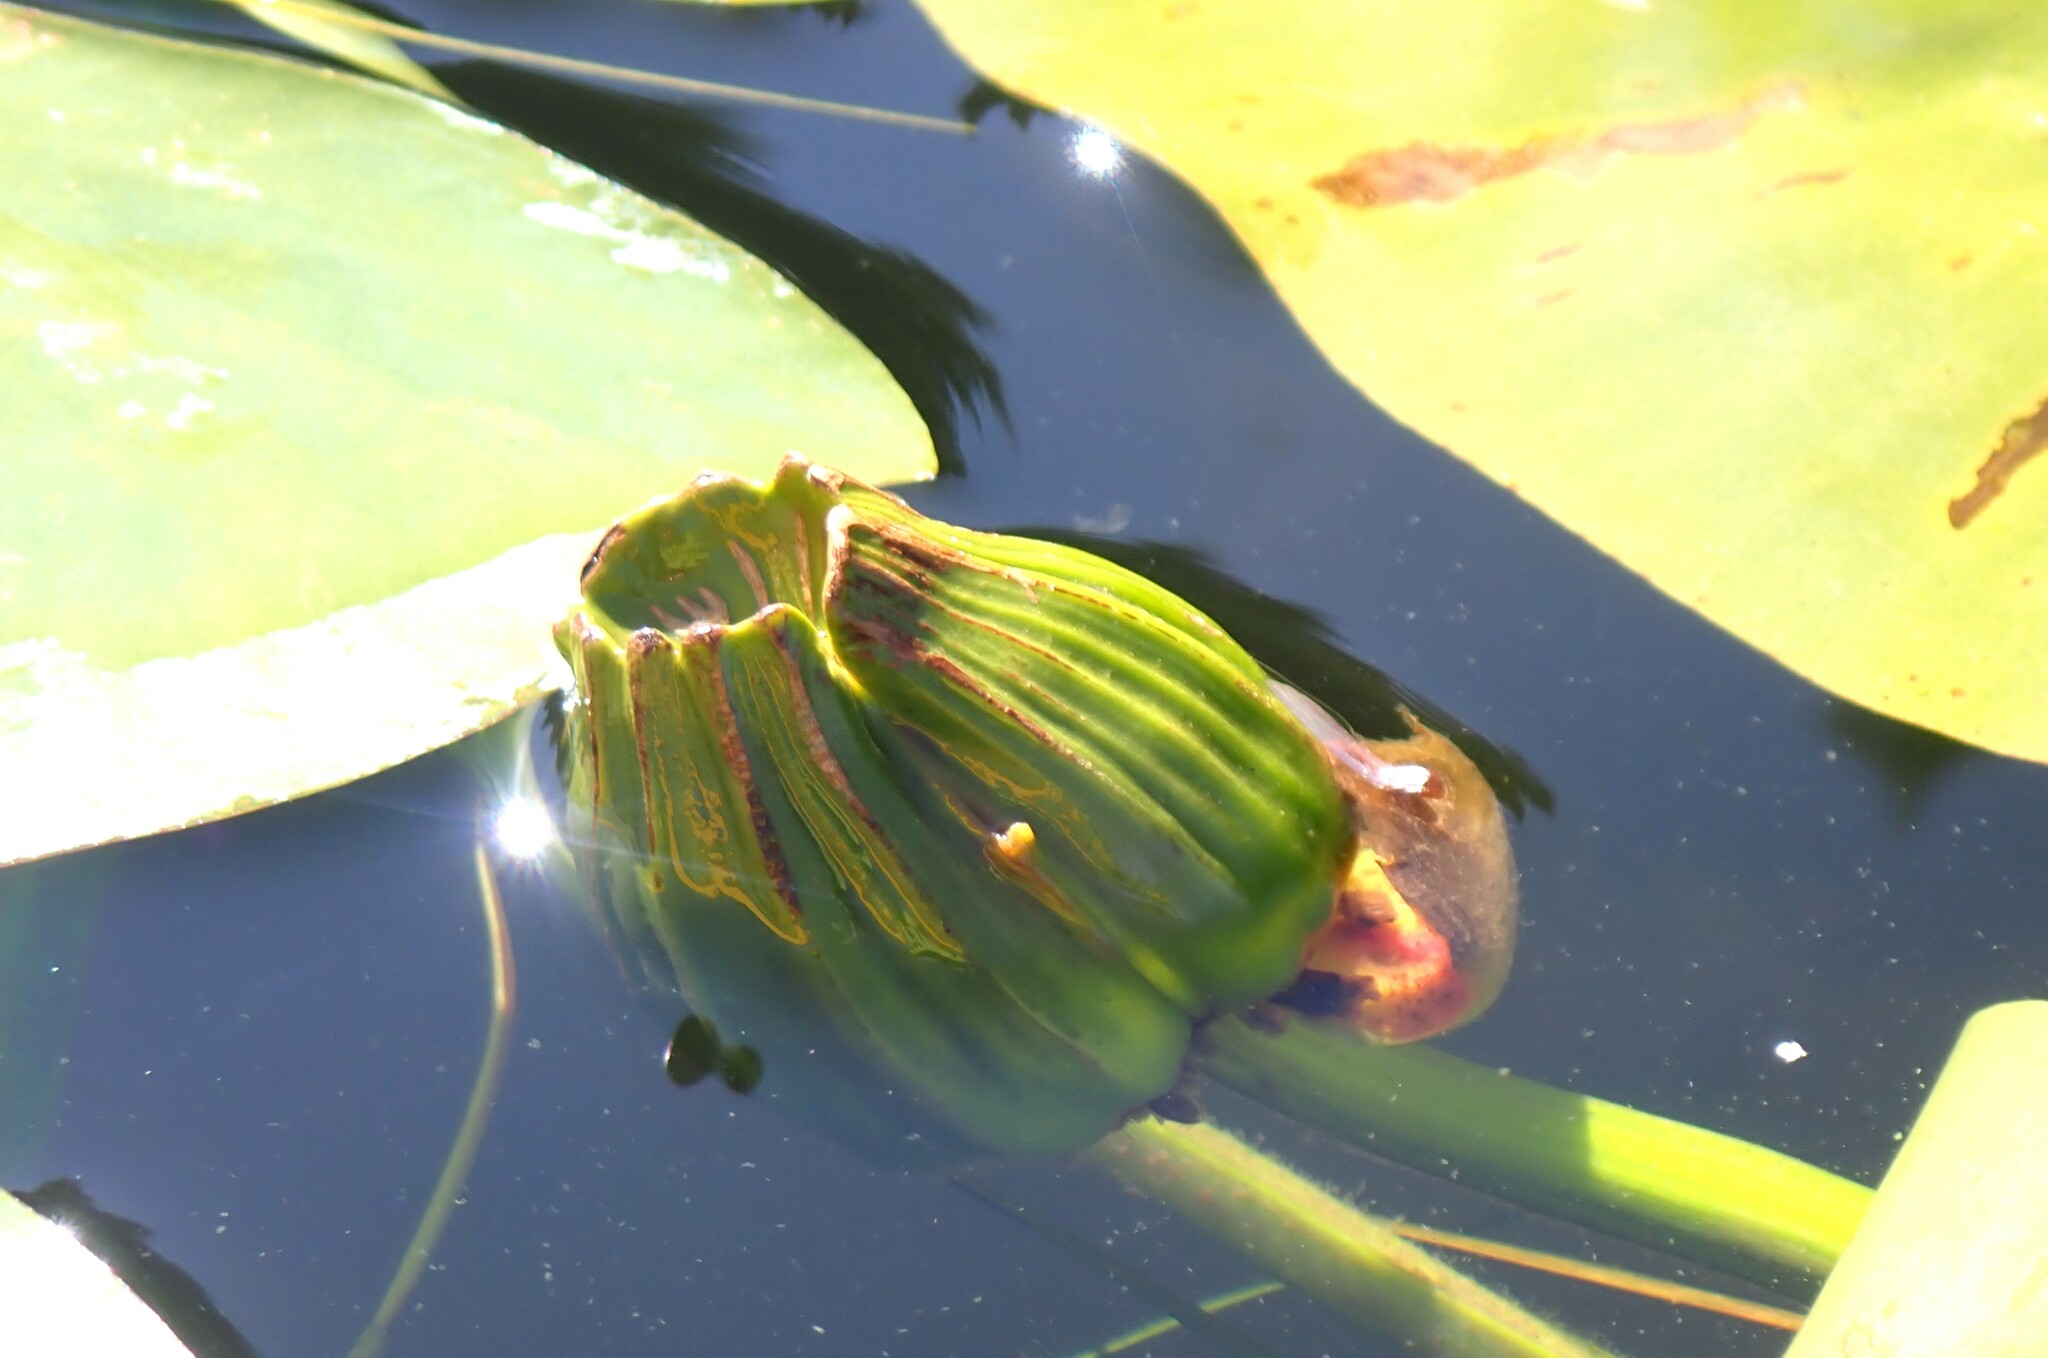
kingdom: Plantae
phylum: Tracheophyta
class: Magnoliopsida
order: Nymphaeales
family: Nymphaeaceae
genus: Nuphar
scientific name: Nuphar variegata
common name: Beaver-root
